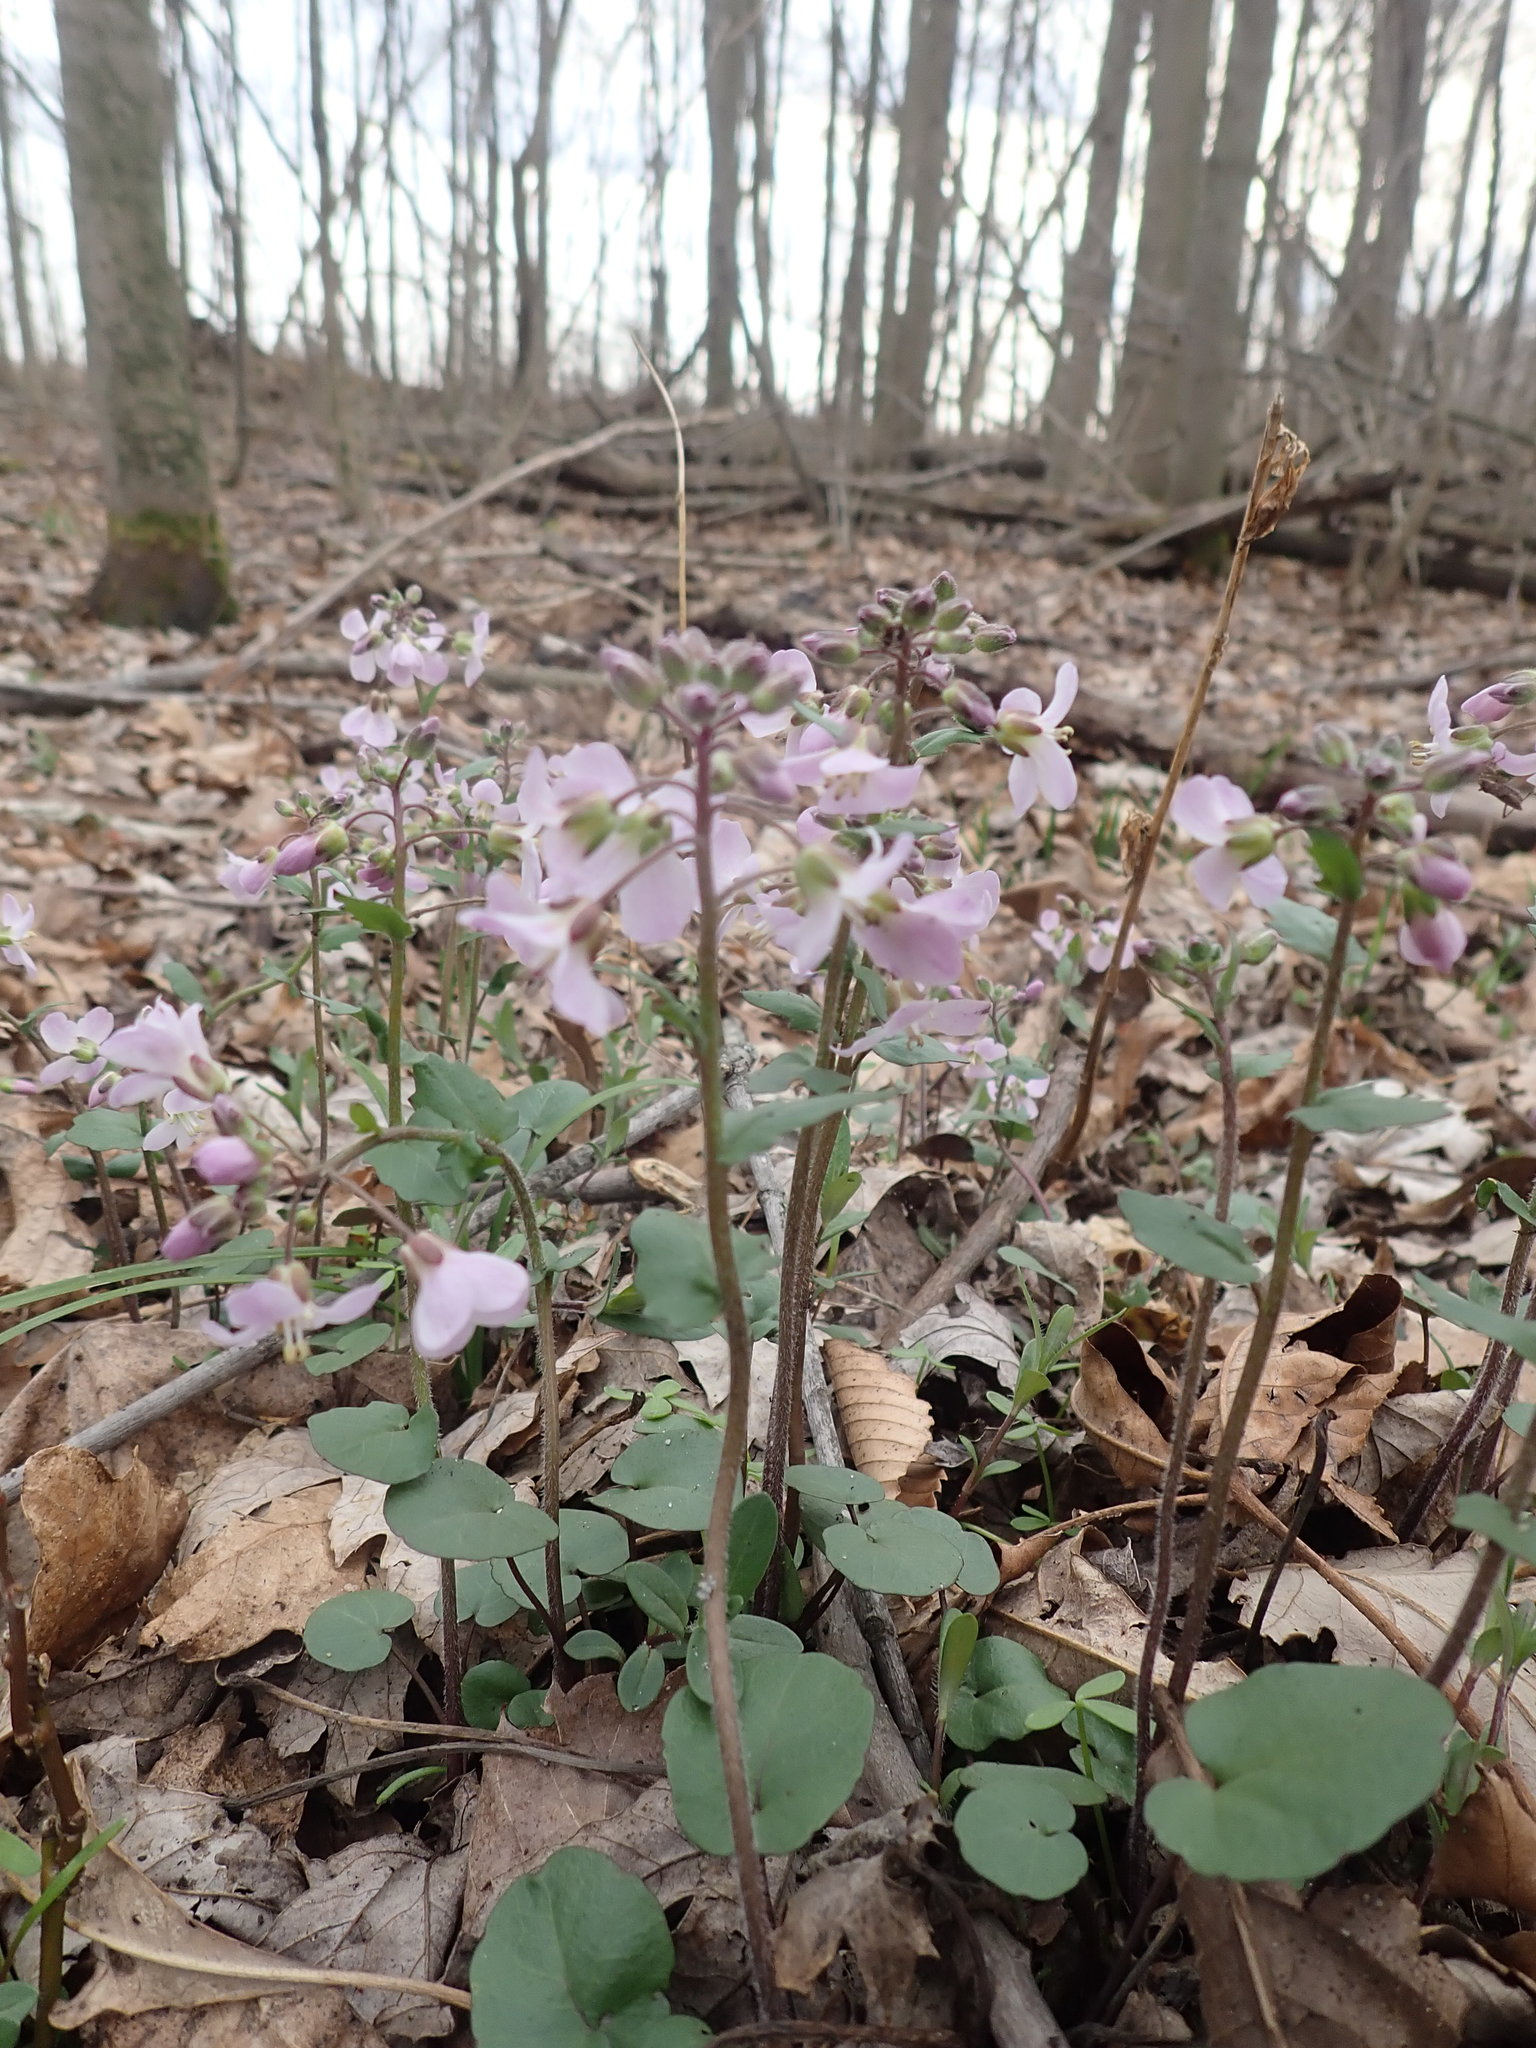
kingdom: Plantae
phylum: Tracheophyta
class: Magnoliopsida
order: Brassicales
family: Brassicaceae
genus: Cardamine
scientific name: Cardamine douglassii
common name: Purple cress
